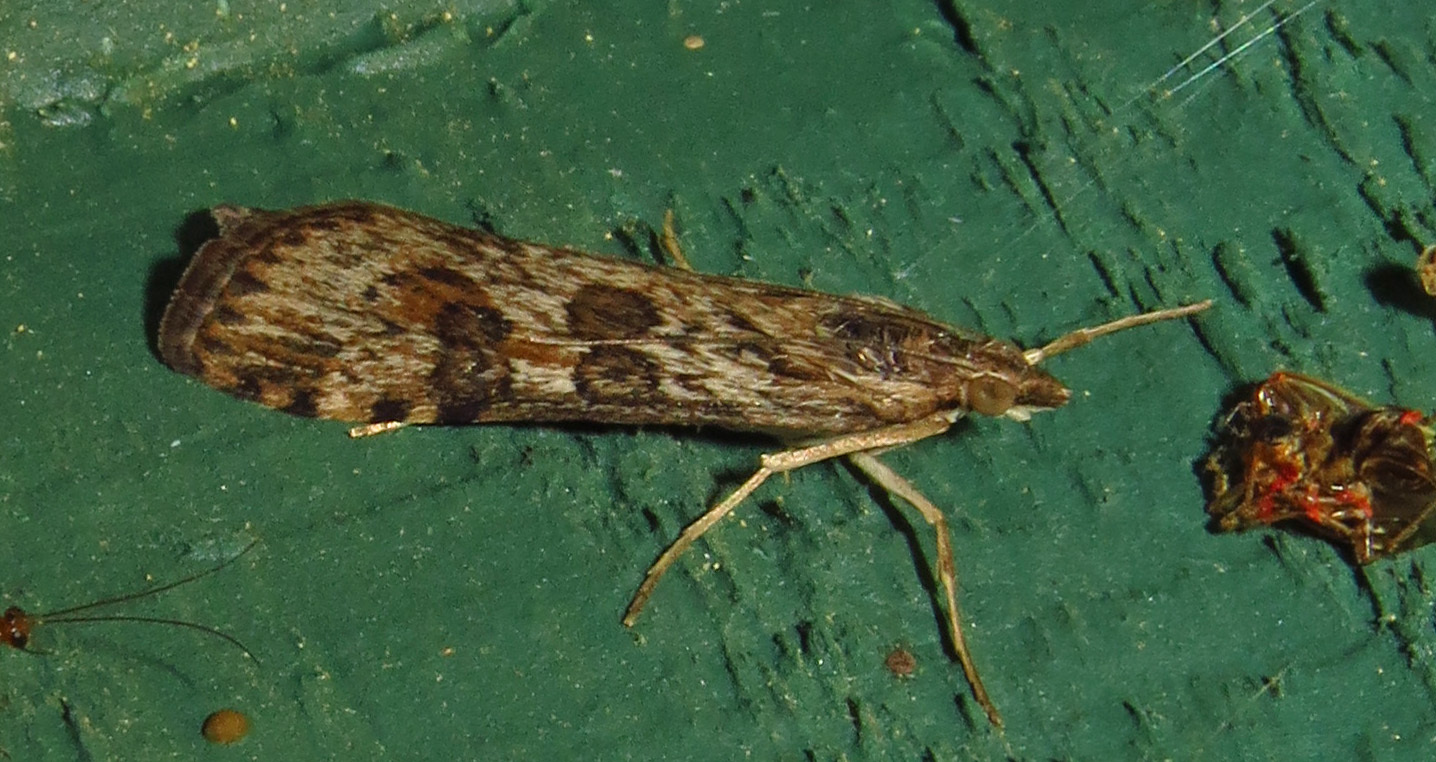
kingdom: Animalia
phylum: Arthropoda
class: Insecta
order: Lepidoptera
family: Crambidae
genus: Nomophila
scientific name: Nomophila nearctica
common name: American rush veneer
